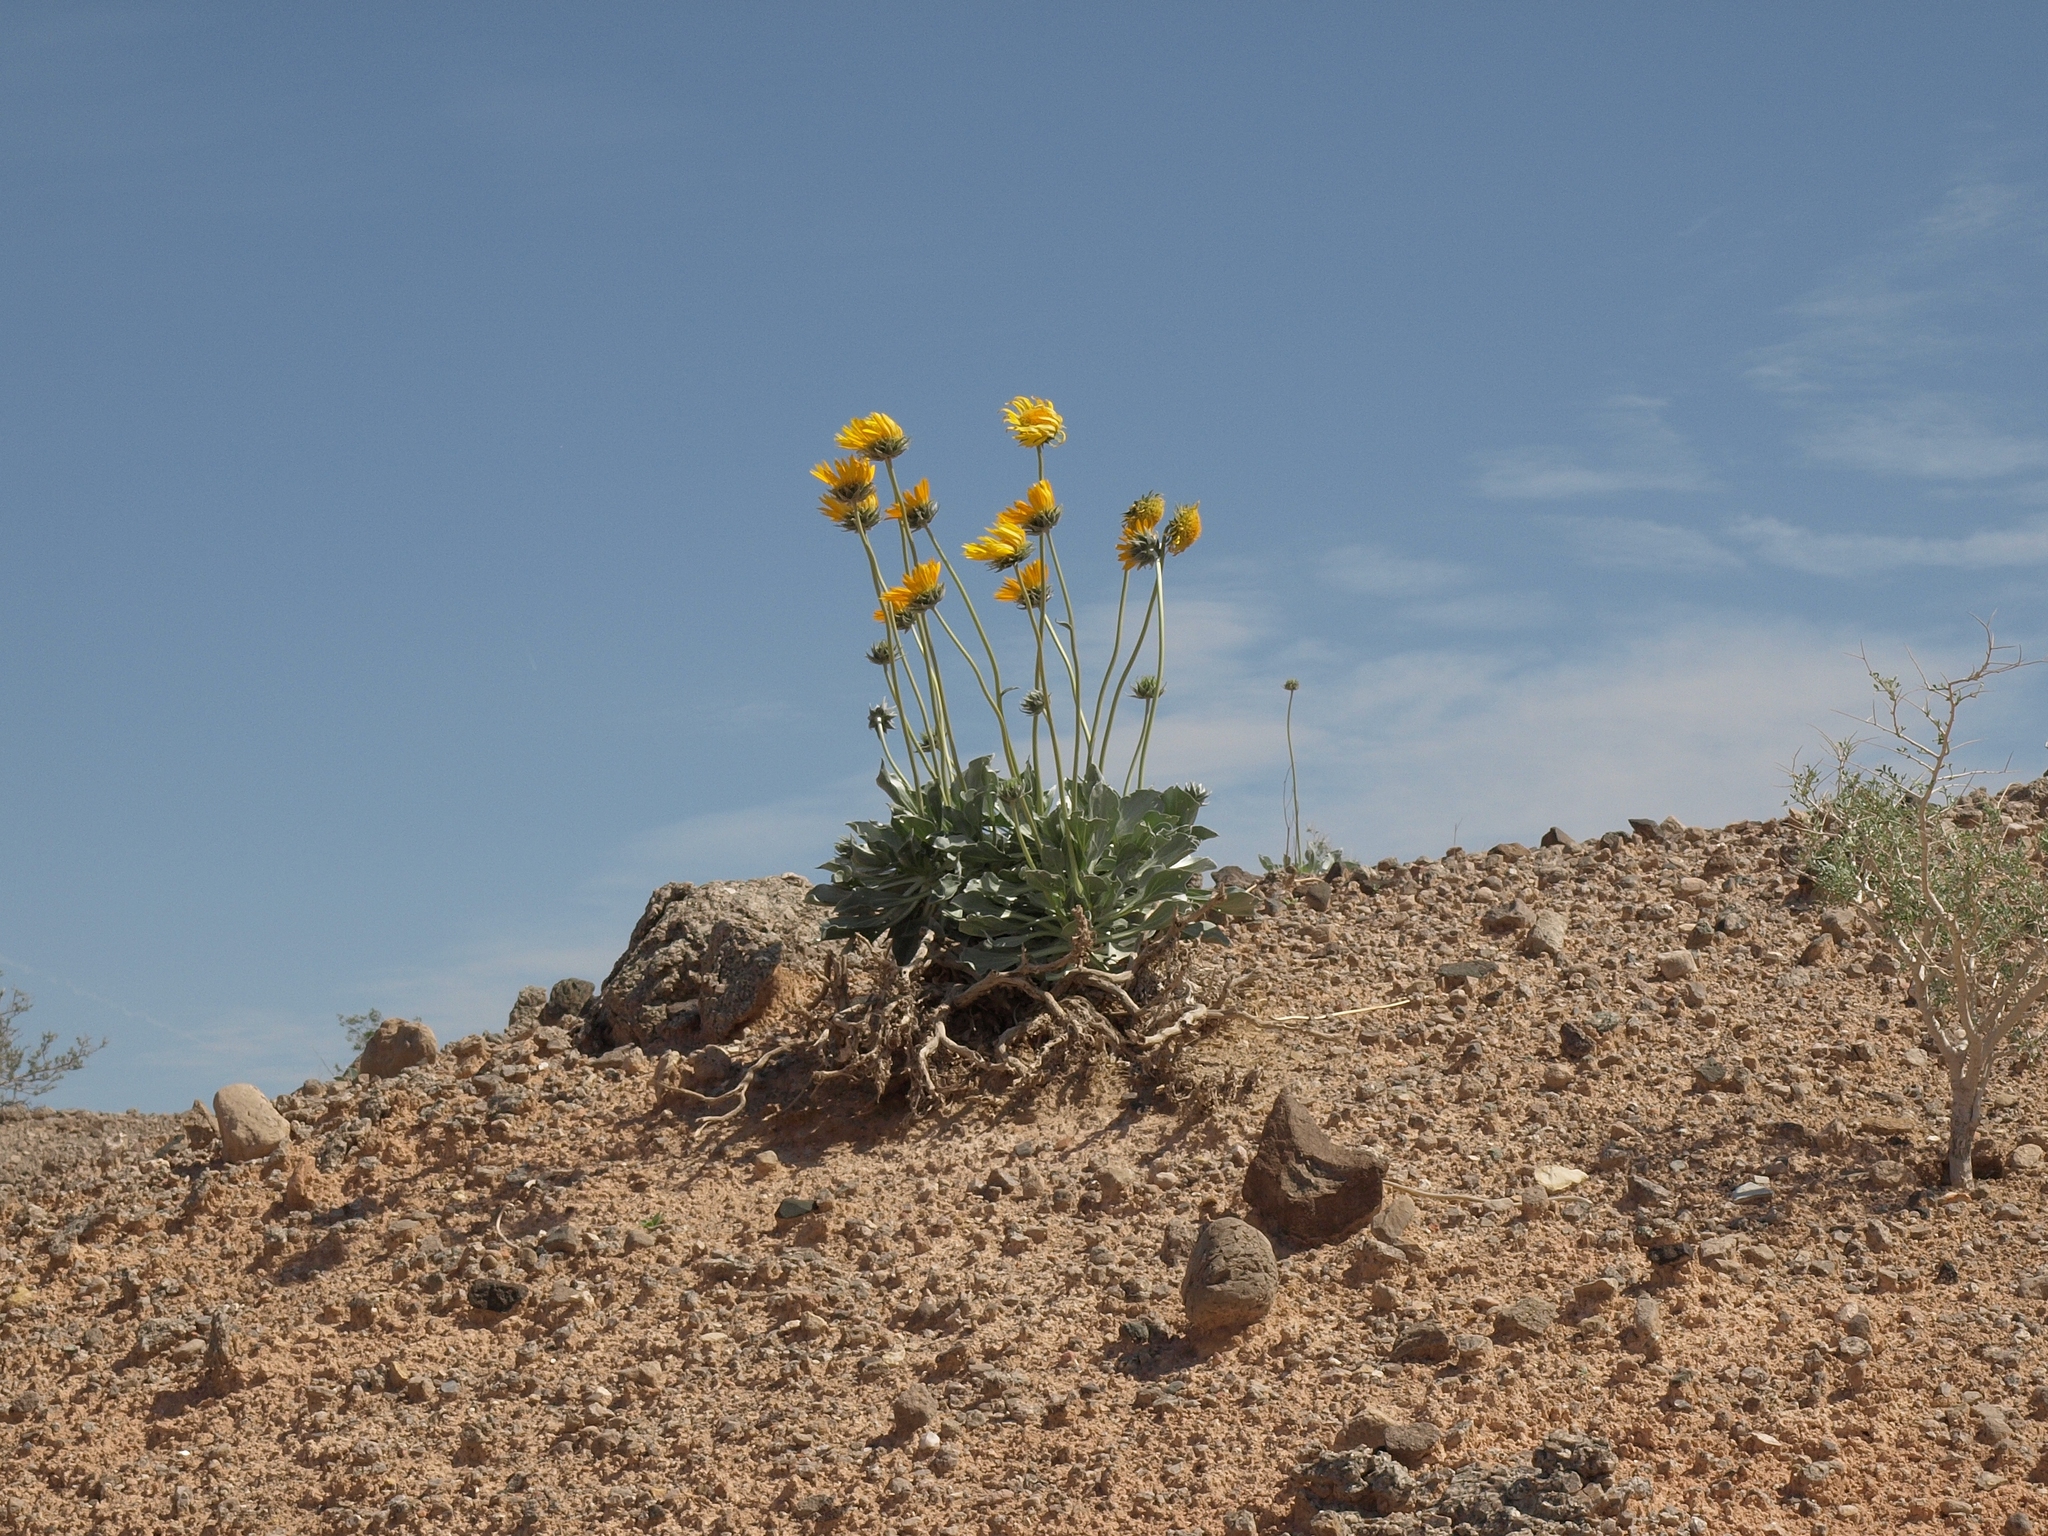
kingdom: Plantae
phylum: Tracheophyta
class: Magnoliopsida
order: Asterales
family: Asteraceae
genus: Enceliopsis
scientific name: Enceliopsis argophylla
